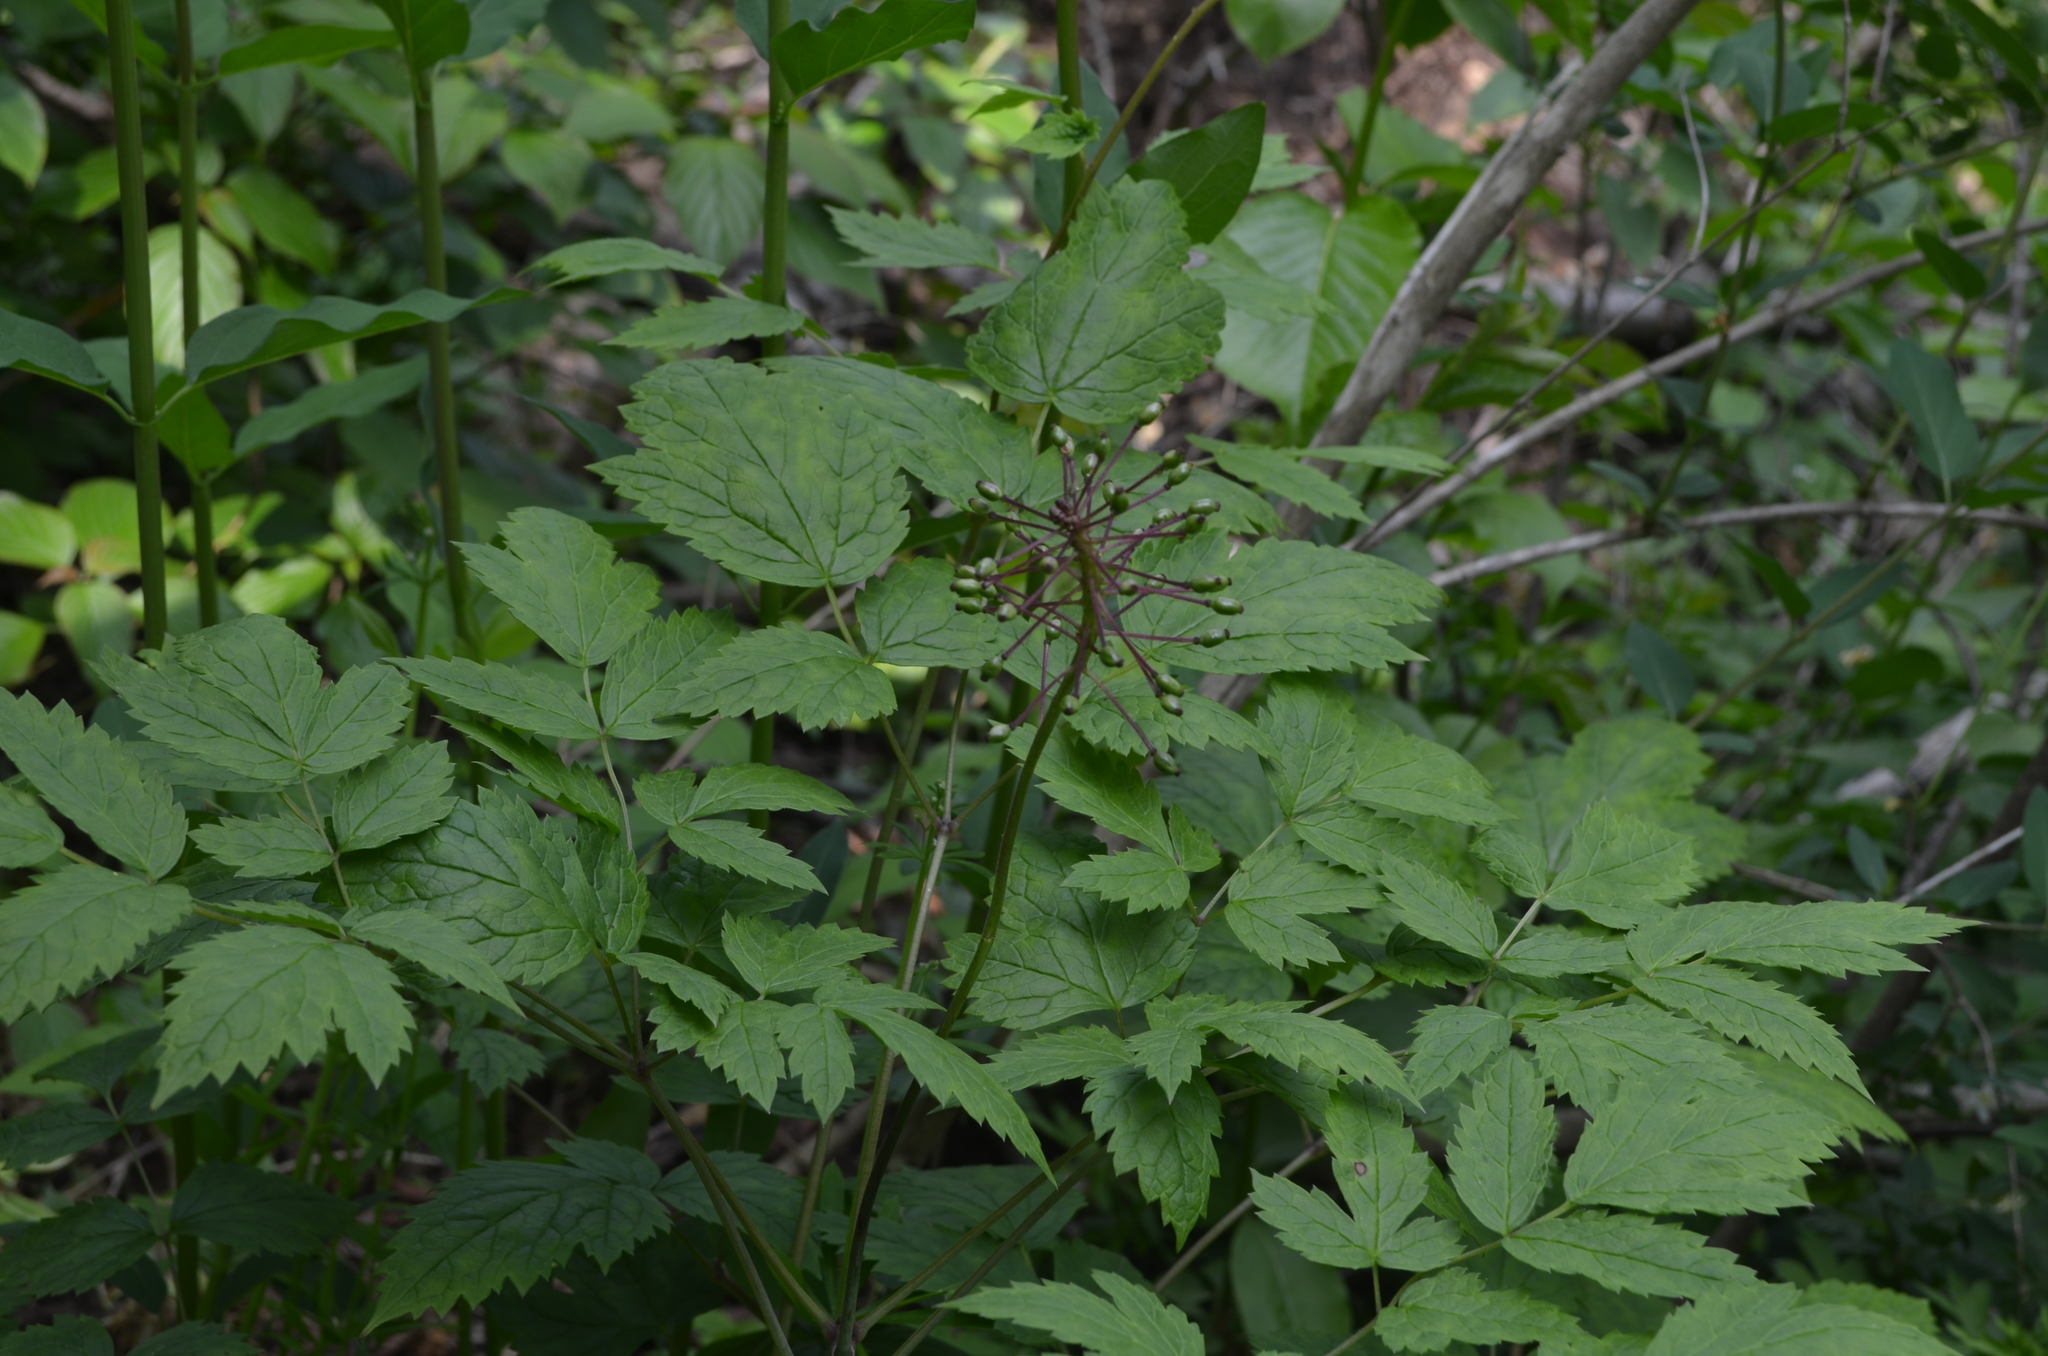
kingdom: Plantae
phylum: Tracheophyta
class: Magnoliopsida
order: Ranunculales
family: Ranunculaceae
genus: Actaea
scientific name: Actaea rubra
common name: Red baneberry
